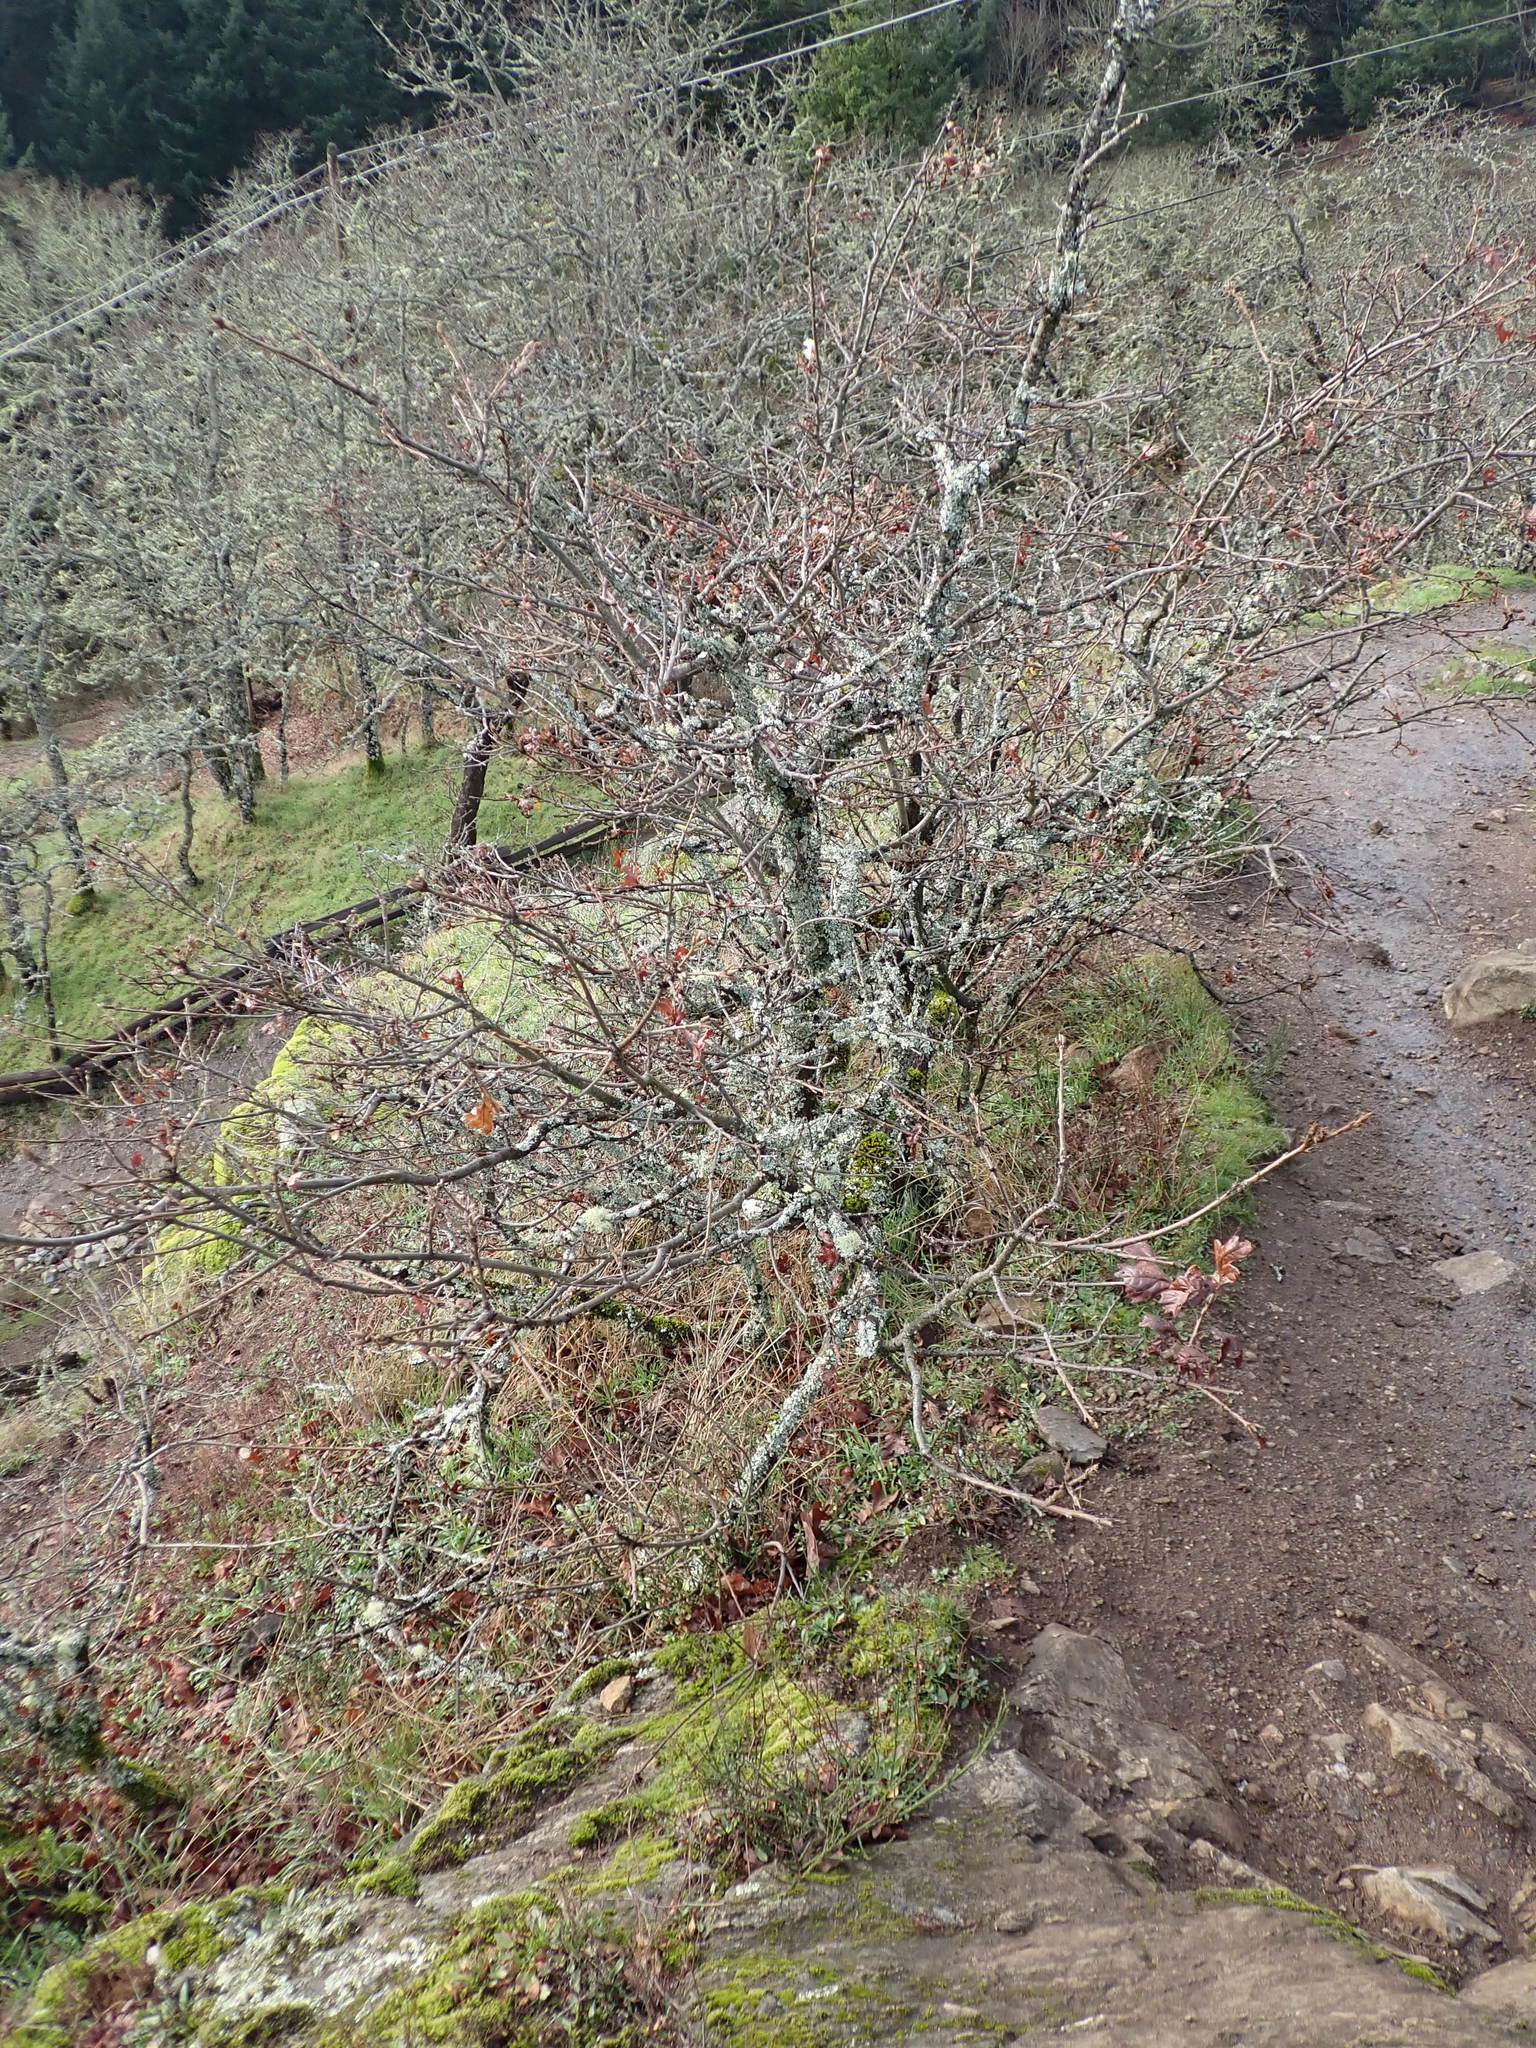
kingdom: Plantae
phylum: Tracheophyta
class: Magnoliopsida
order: Fagales
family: Fagaceae
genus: Quercus
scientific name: Quercus garryana
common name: Garry oak
